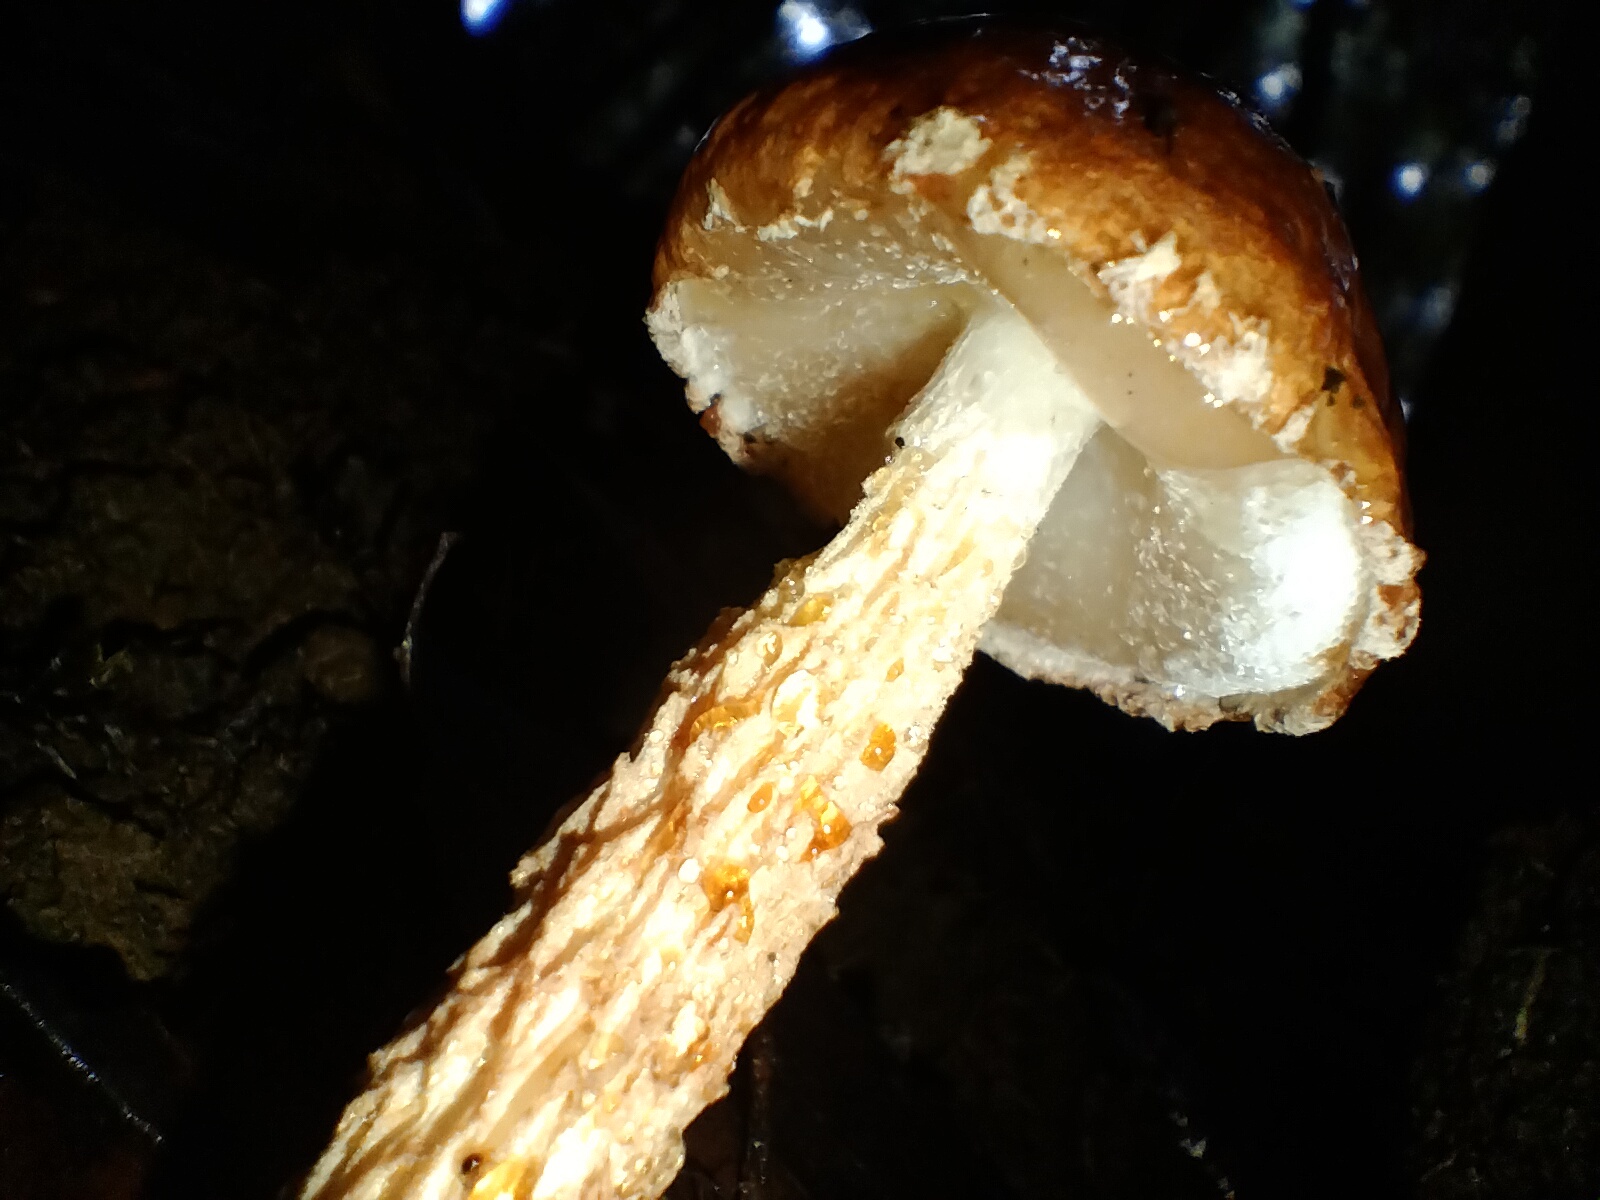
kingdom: Fungi
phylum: Basidiomycota
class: Agaricomycetes
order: Boletales
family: Boletaceae
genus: Austroboletus
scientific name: Austroboletus lacunosus
